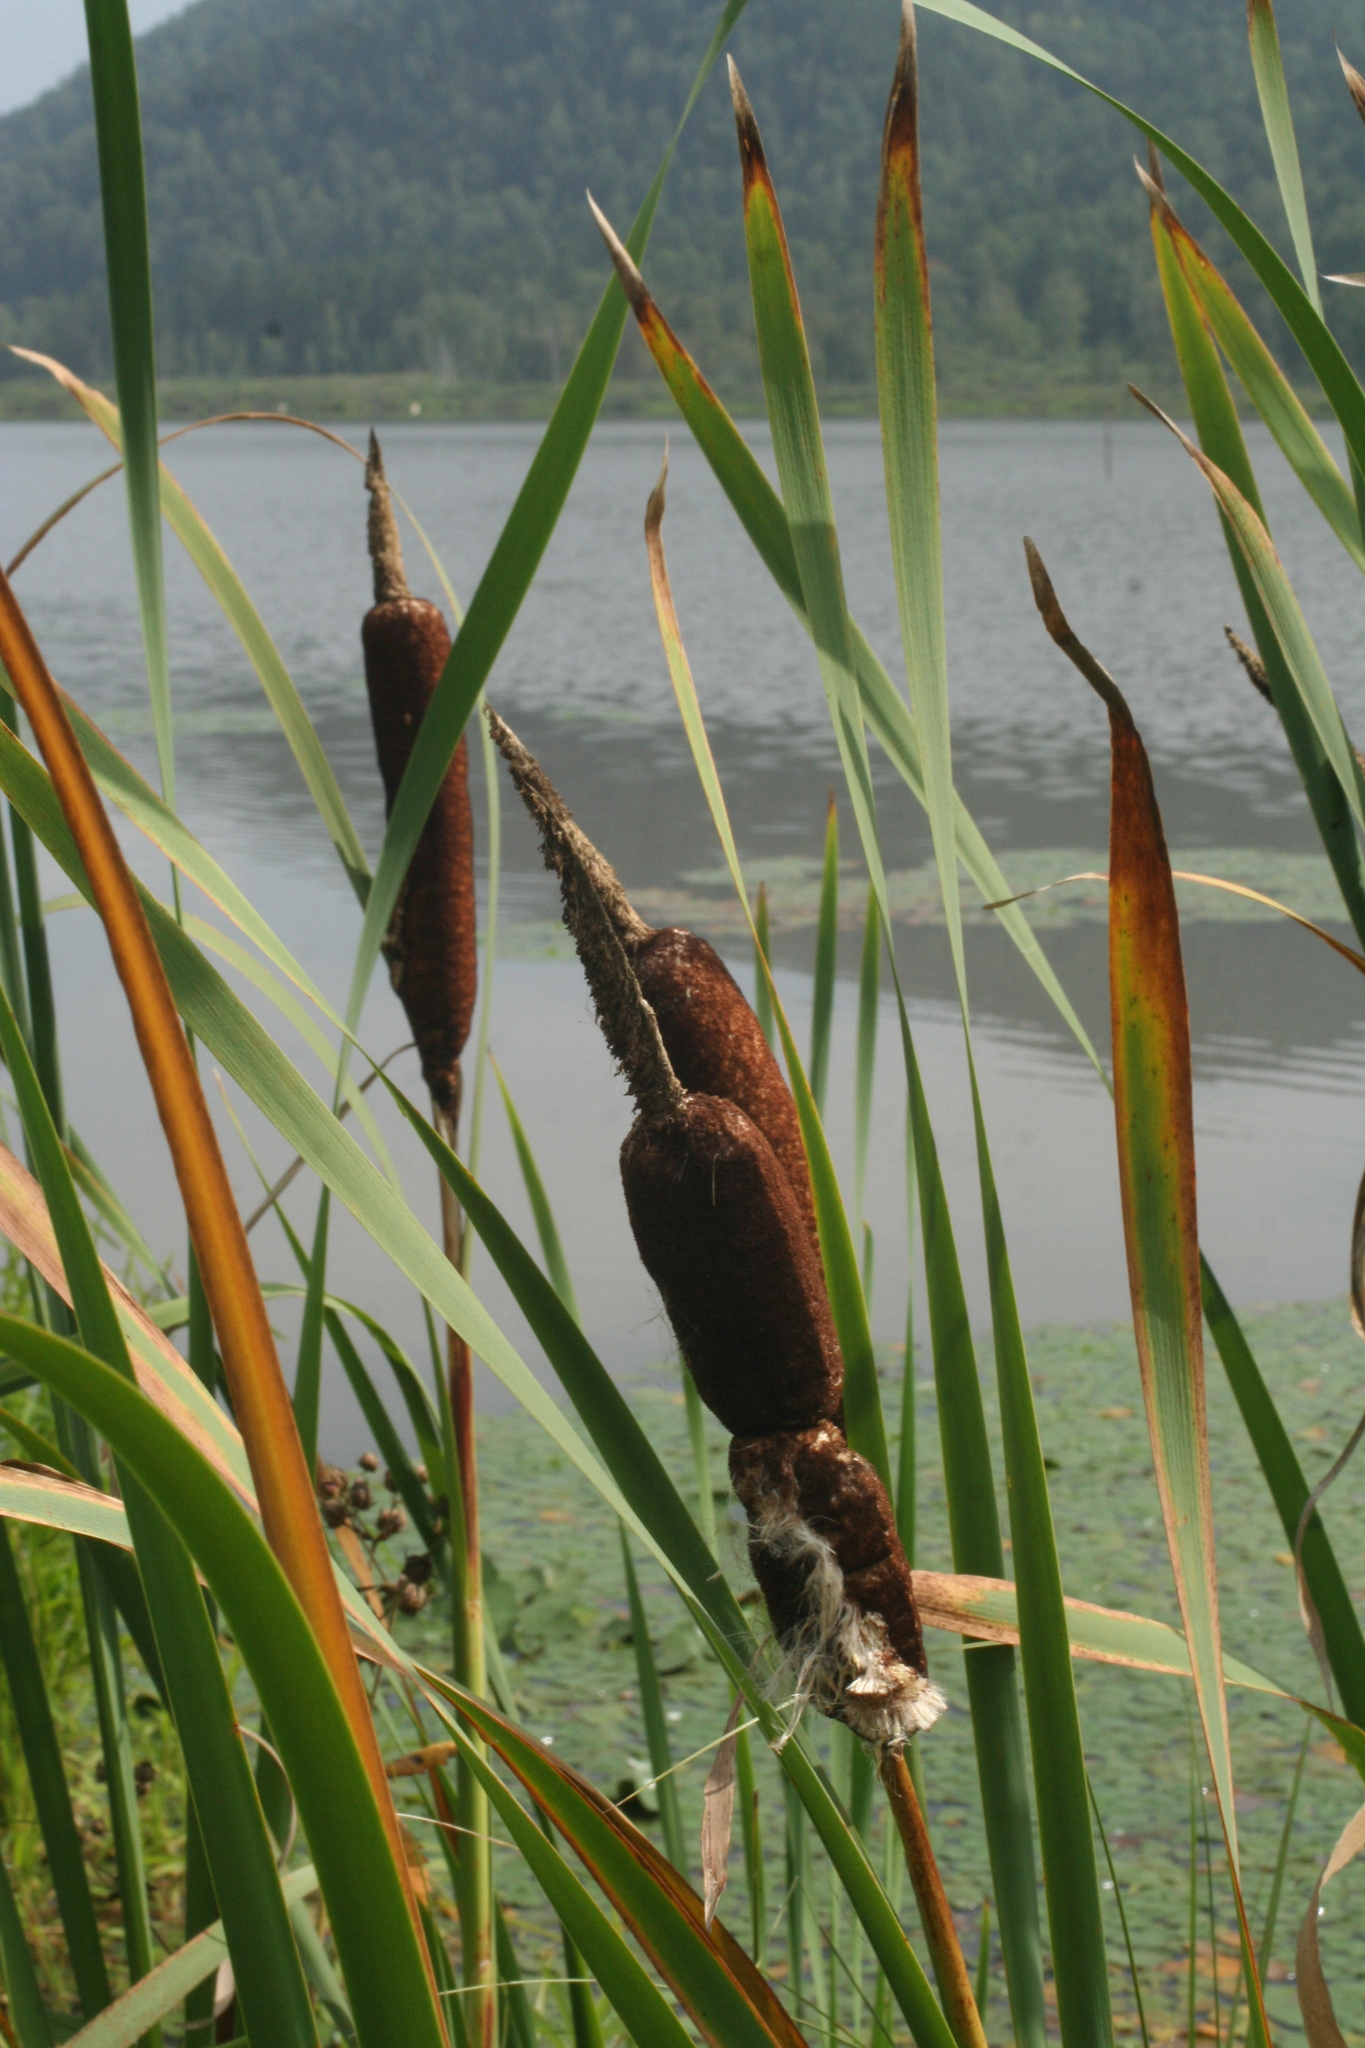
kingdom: Plantae
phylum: Tracheophyta
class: Liliopsida
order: Poales
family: Typhaceae
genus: Typha
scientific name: Typha latifolia
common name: Broadleaf cattail
